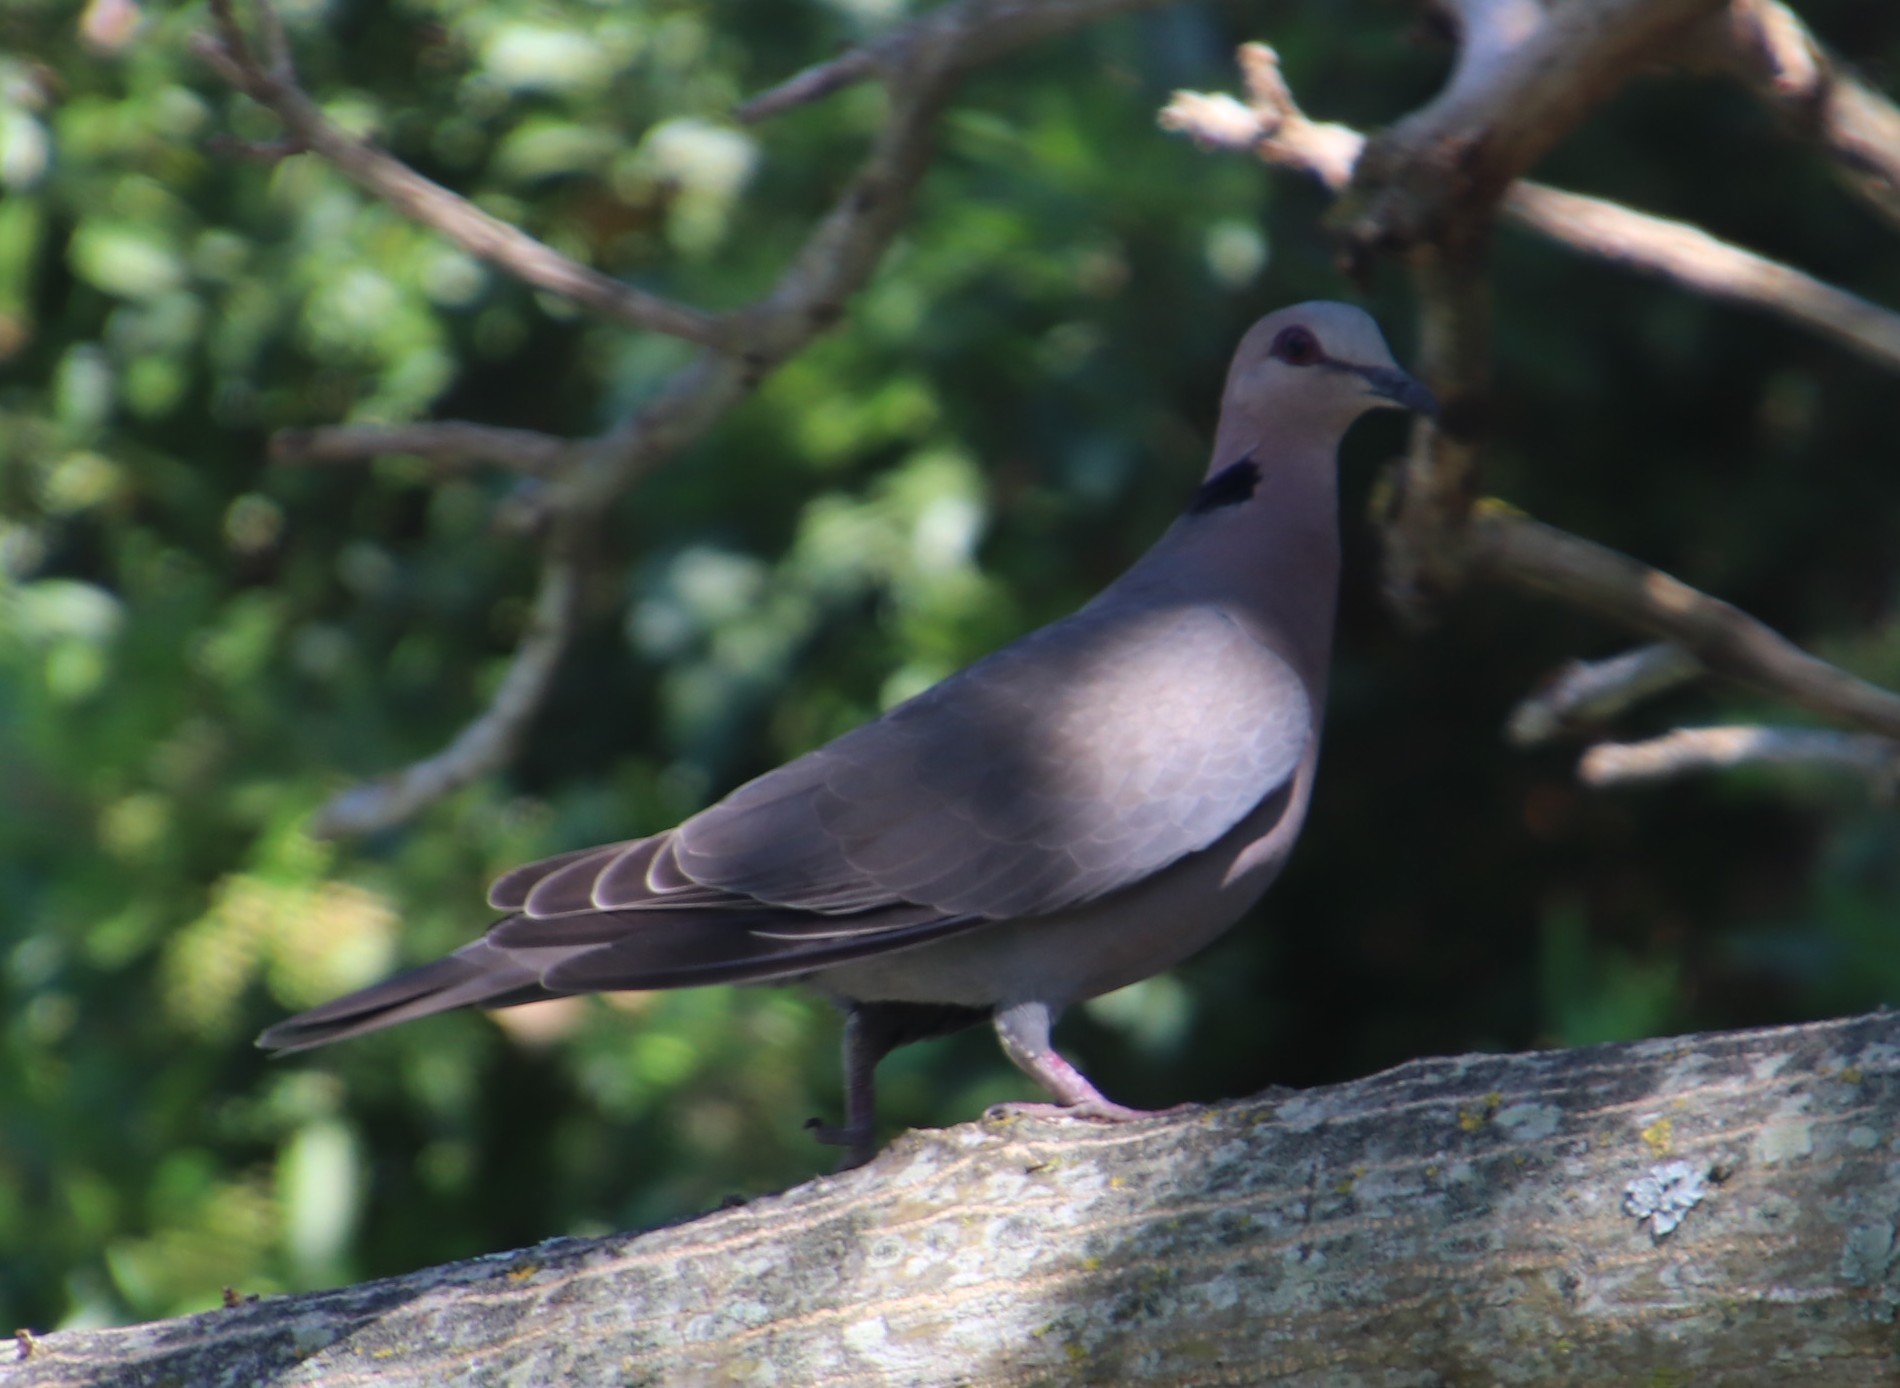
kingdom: Animalia
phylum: Chordata
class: Aves
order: Columbiformes
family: Columbidae
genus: Streptopelia
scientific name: Streptopelia semitorquata
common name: Red-eyed dove
